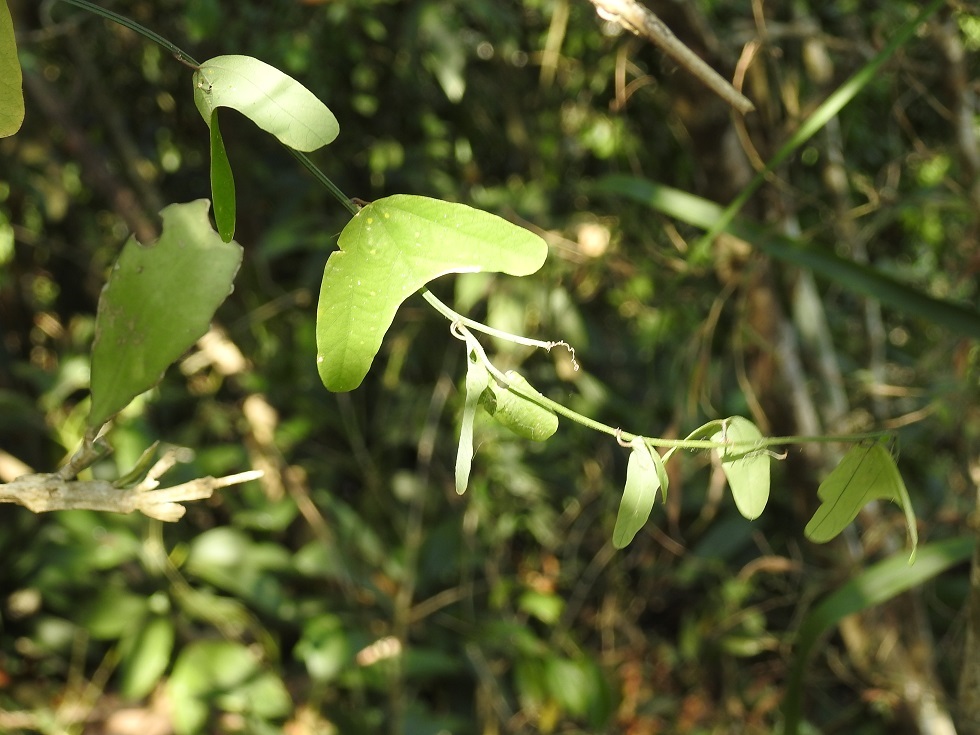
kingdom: Plantae
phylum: Tracheophyta
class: Magnoliopsida
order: Malpighiales
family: Passifloraceae
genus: Passiflora
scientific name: Passiflora biflora
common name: Twoflower passionflower
